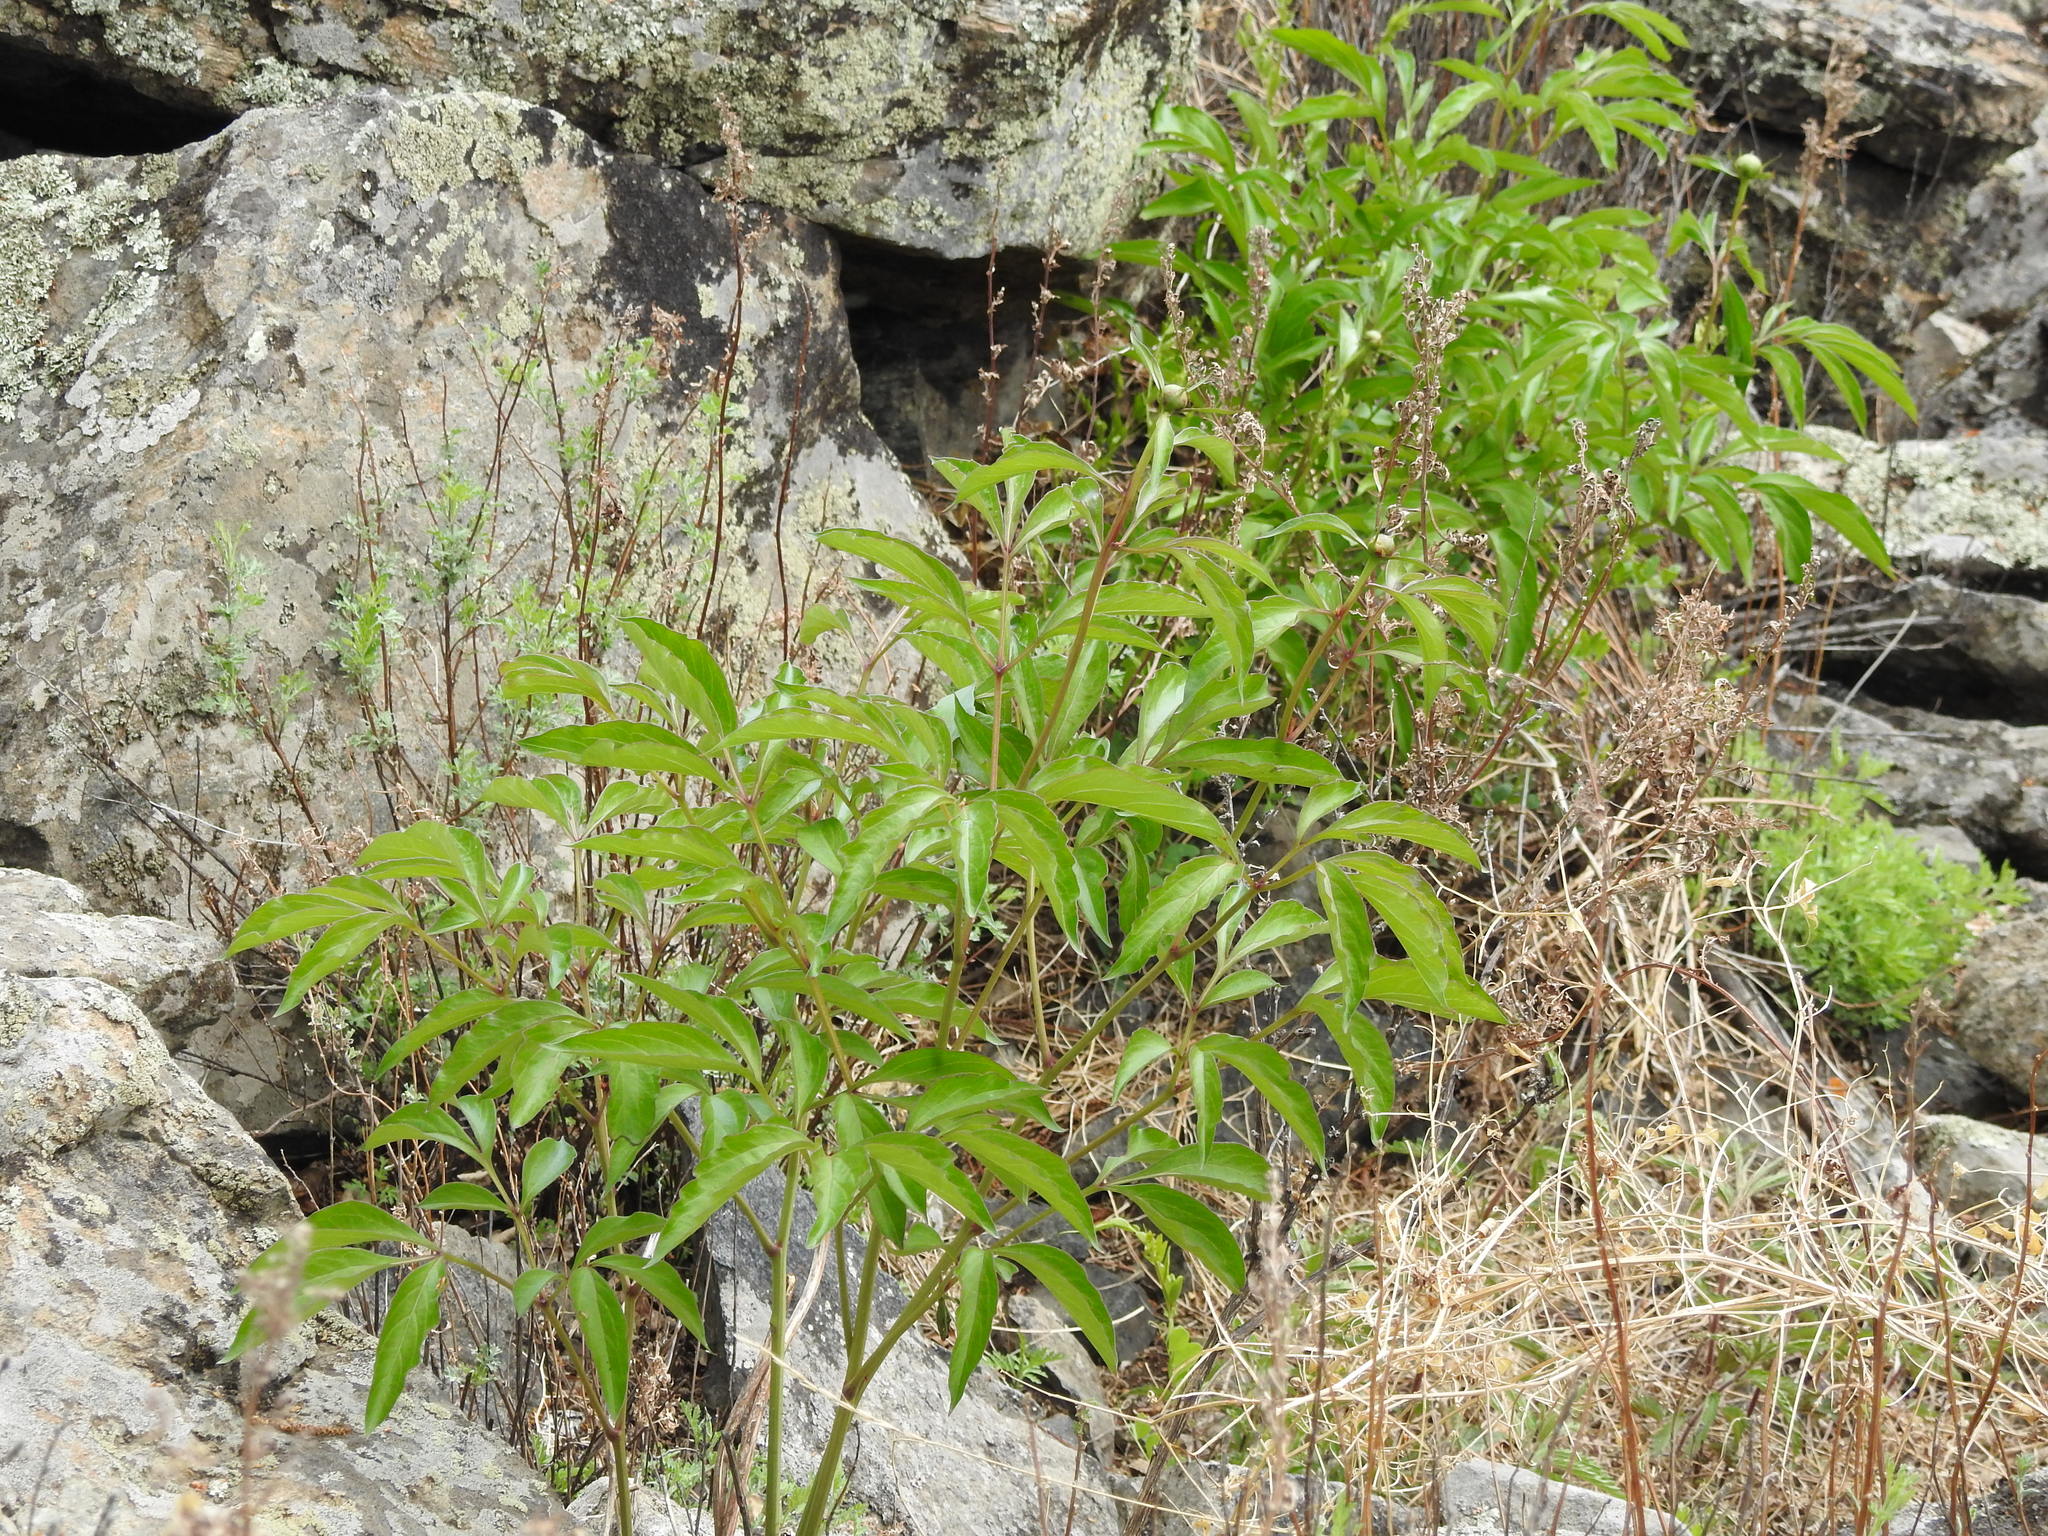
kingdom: Plantae
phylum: Tracheophyta
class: Magnoliopsida
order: Saxifragales
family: Paeoniaceae
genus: Paeonia
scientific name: Paeonia lactiflora
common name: Chinese peony
